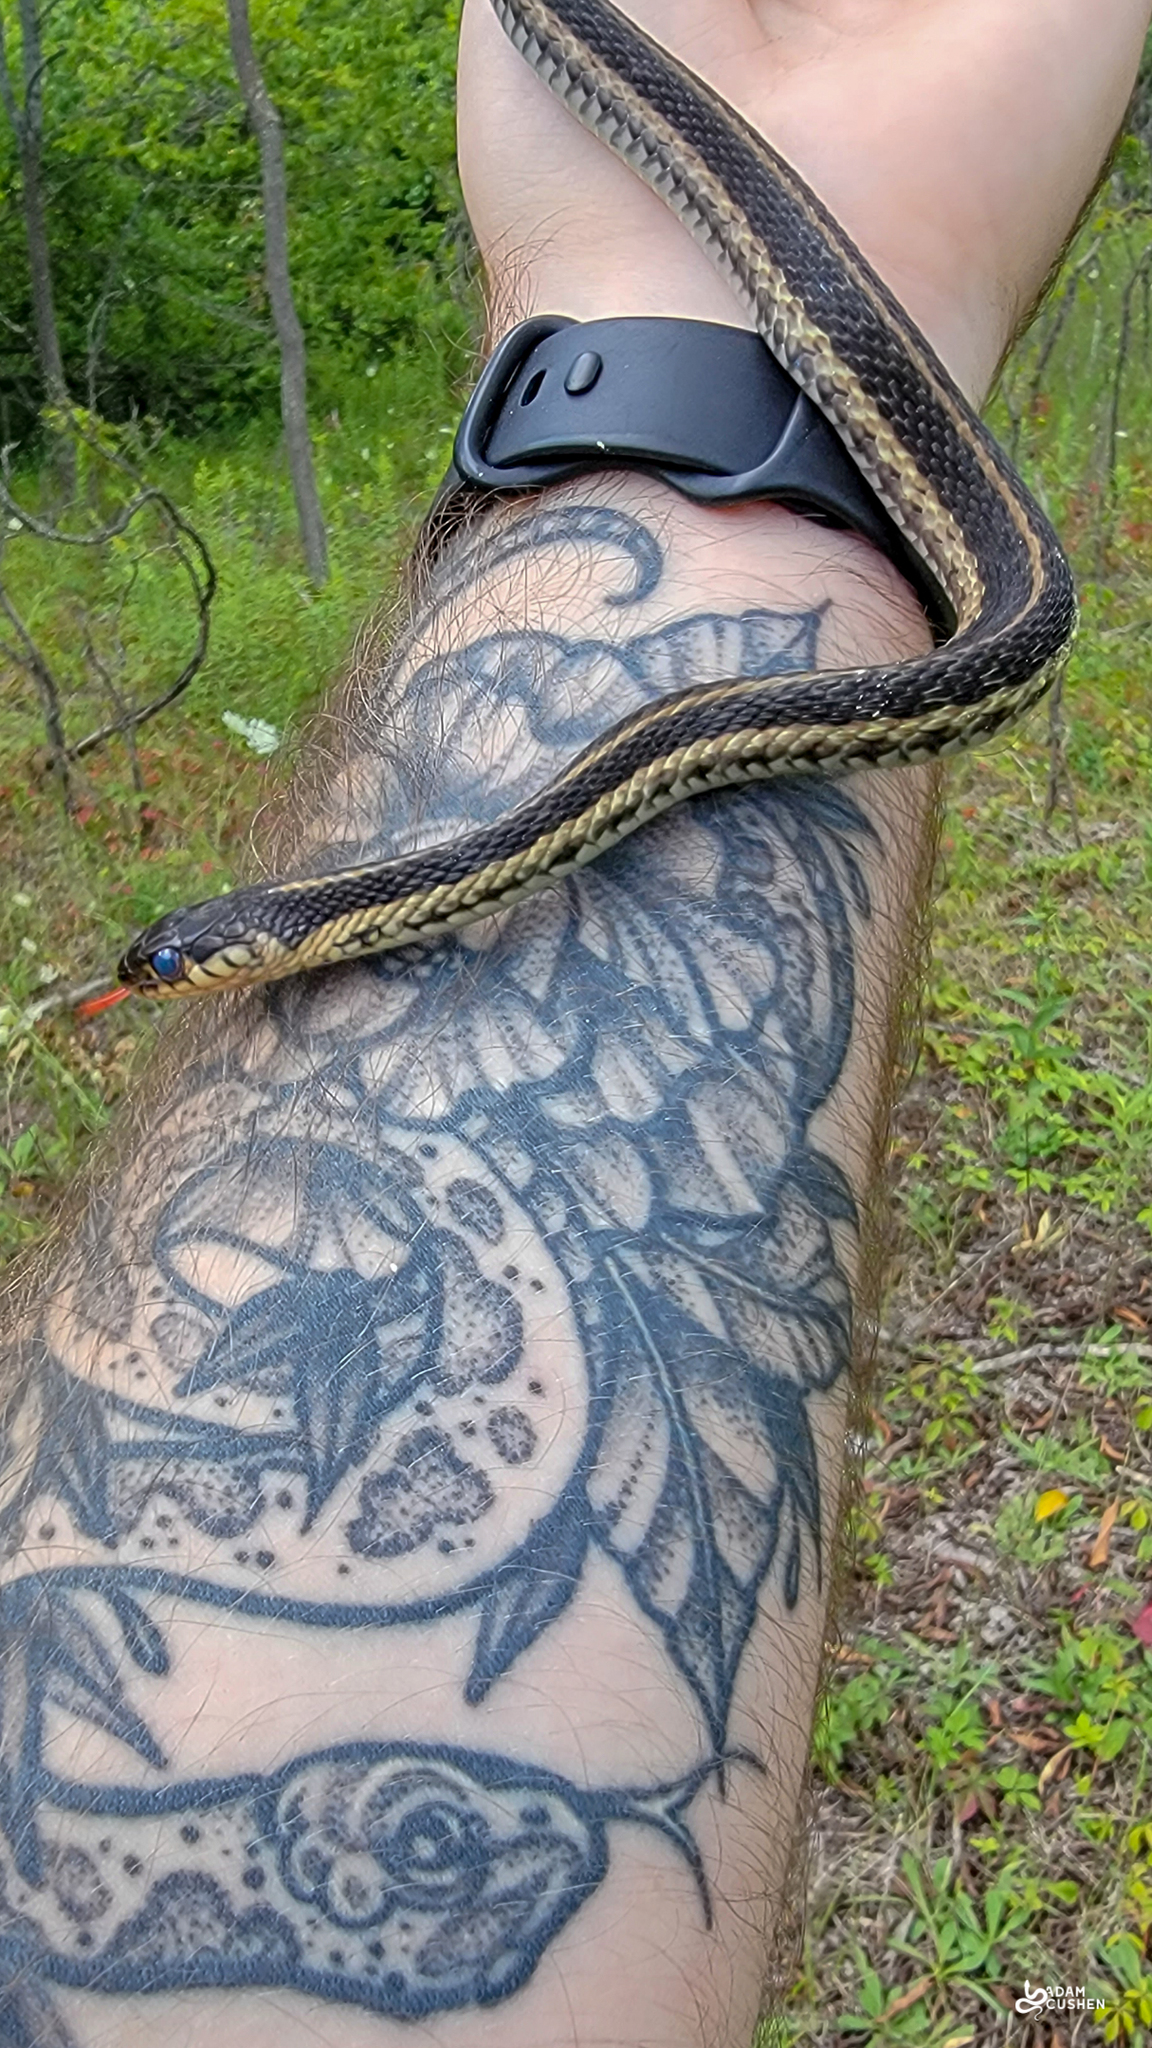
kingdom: Animalia
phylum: Chordata
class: Squamata
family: Colubridae
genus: Thamnophis
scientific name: Thamnophis sirtalis
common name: Common garter snake
